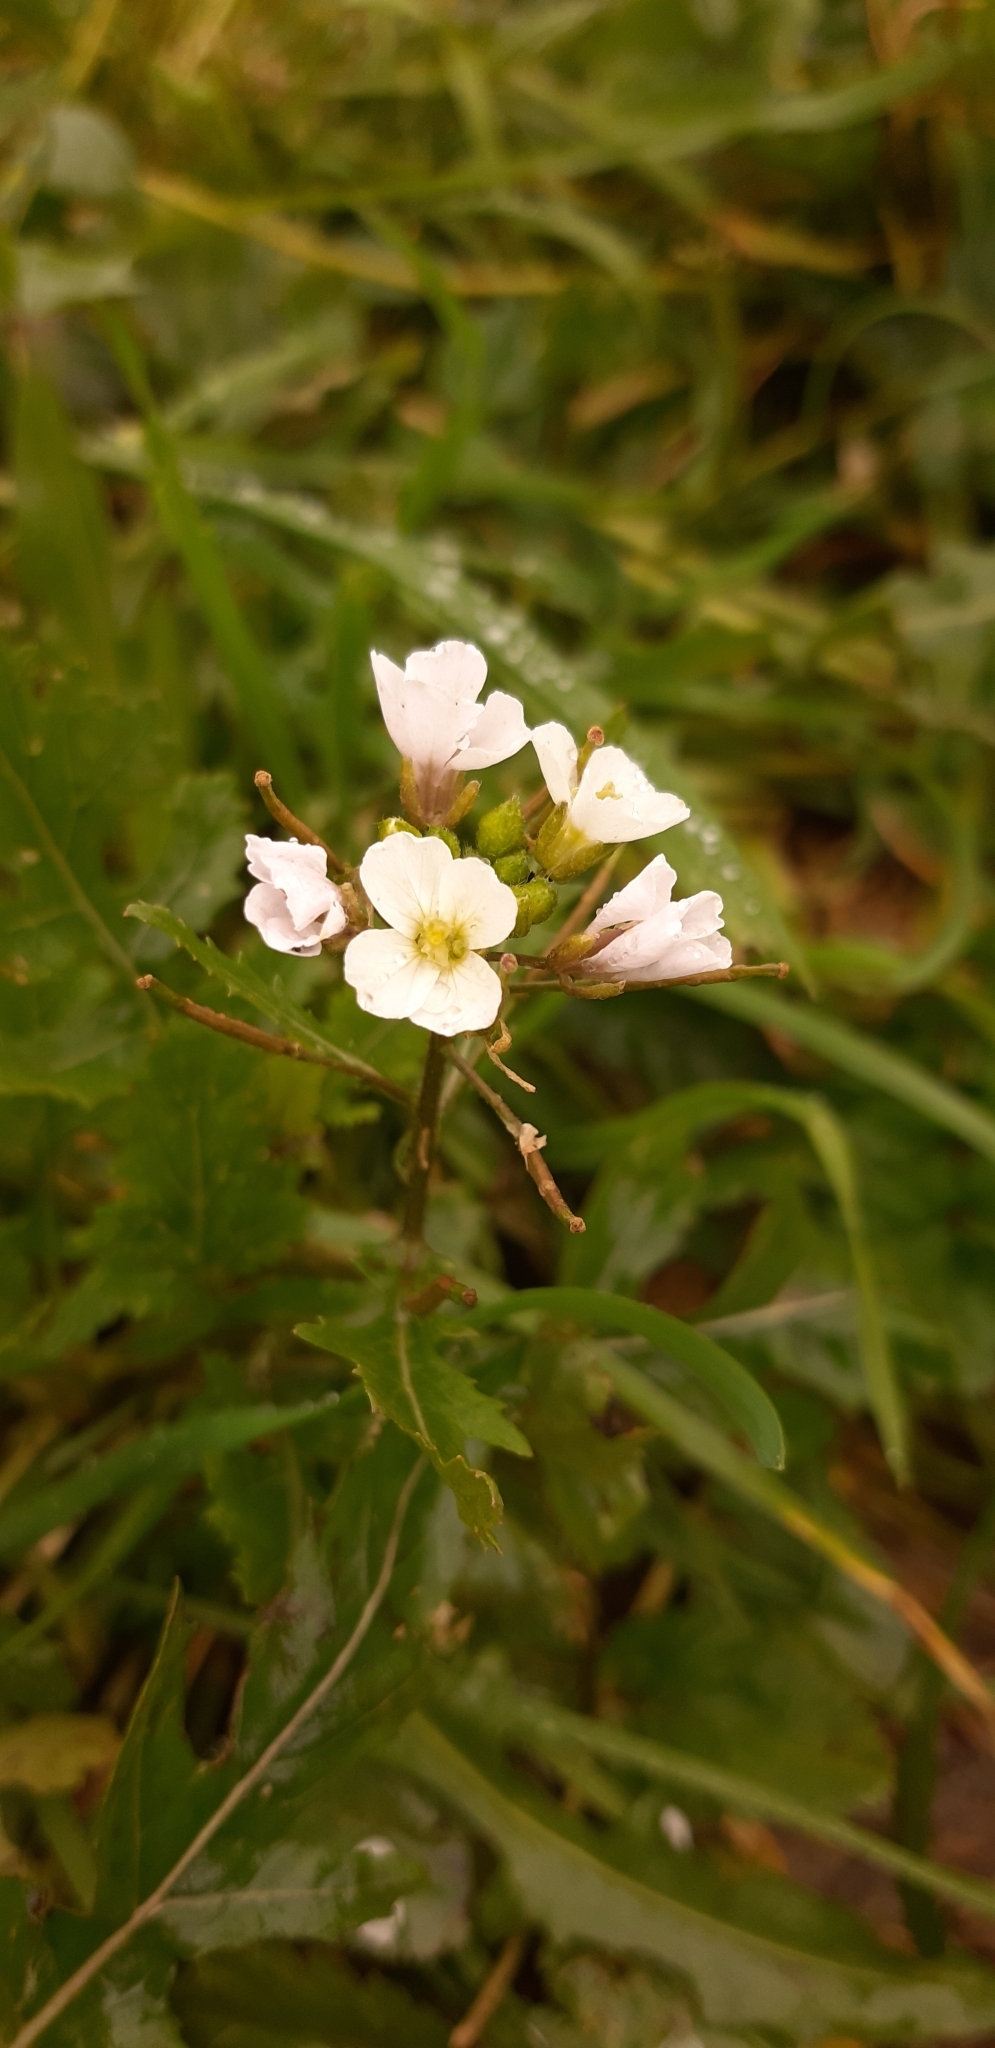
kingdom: Plantae
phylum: Tracheophyta
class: Magnoliopsida
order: Brassicales
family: Brassicaceae
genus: Diplotaxis
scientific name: Diplotaxis erucoides
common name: White rocket
